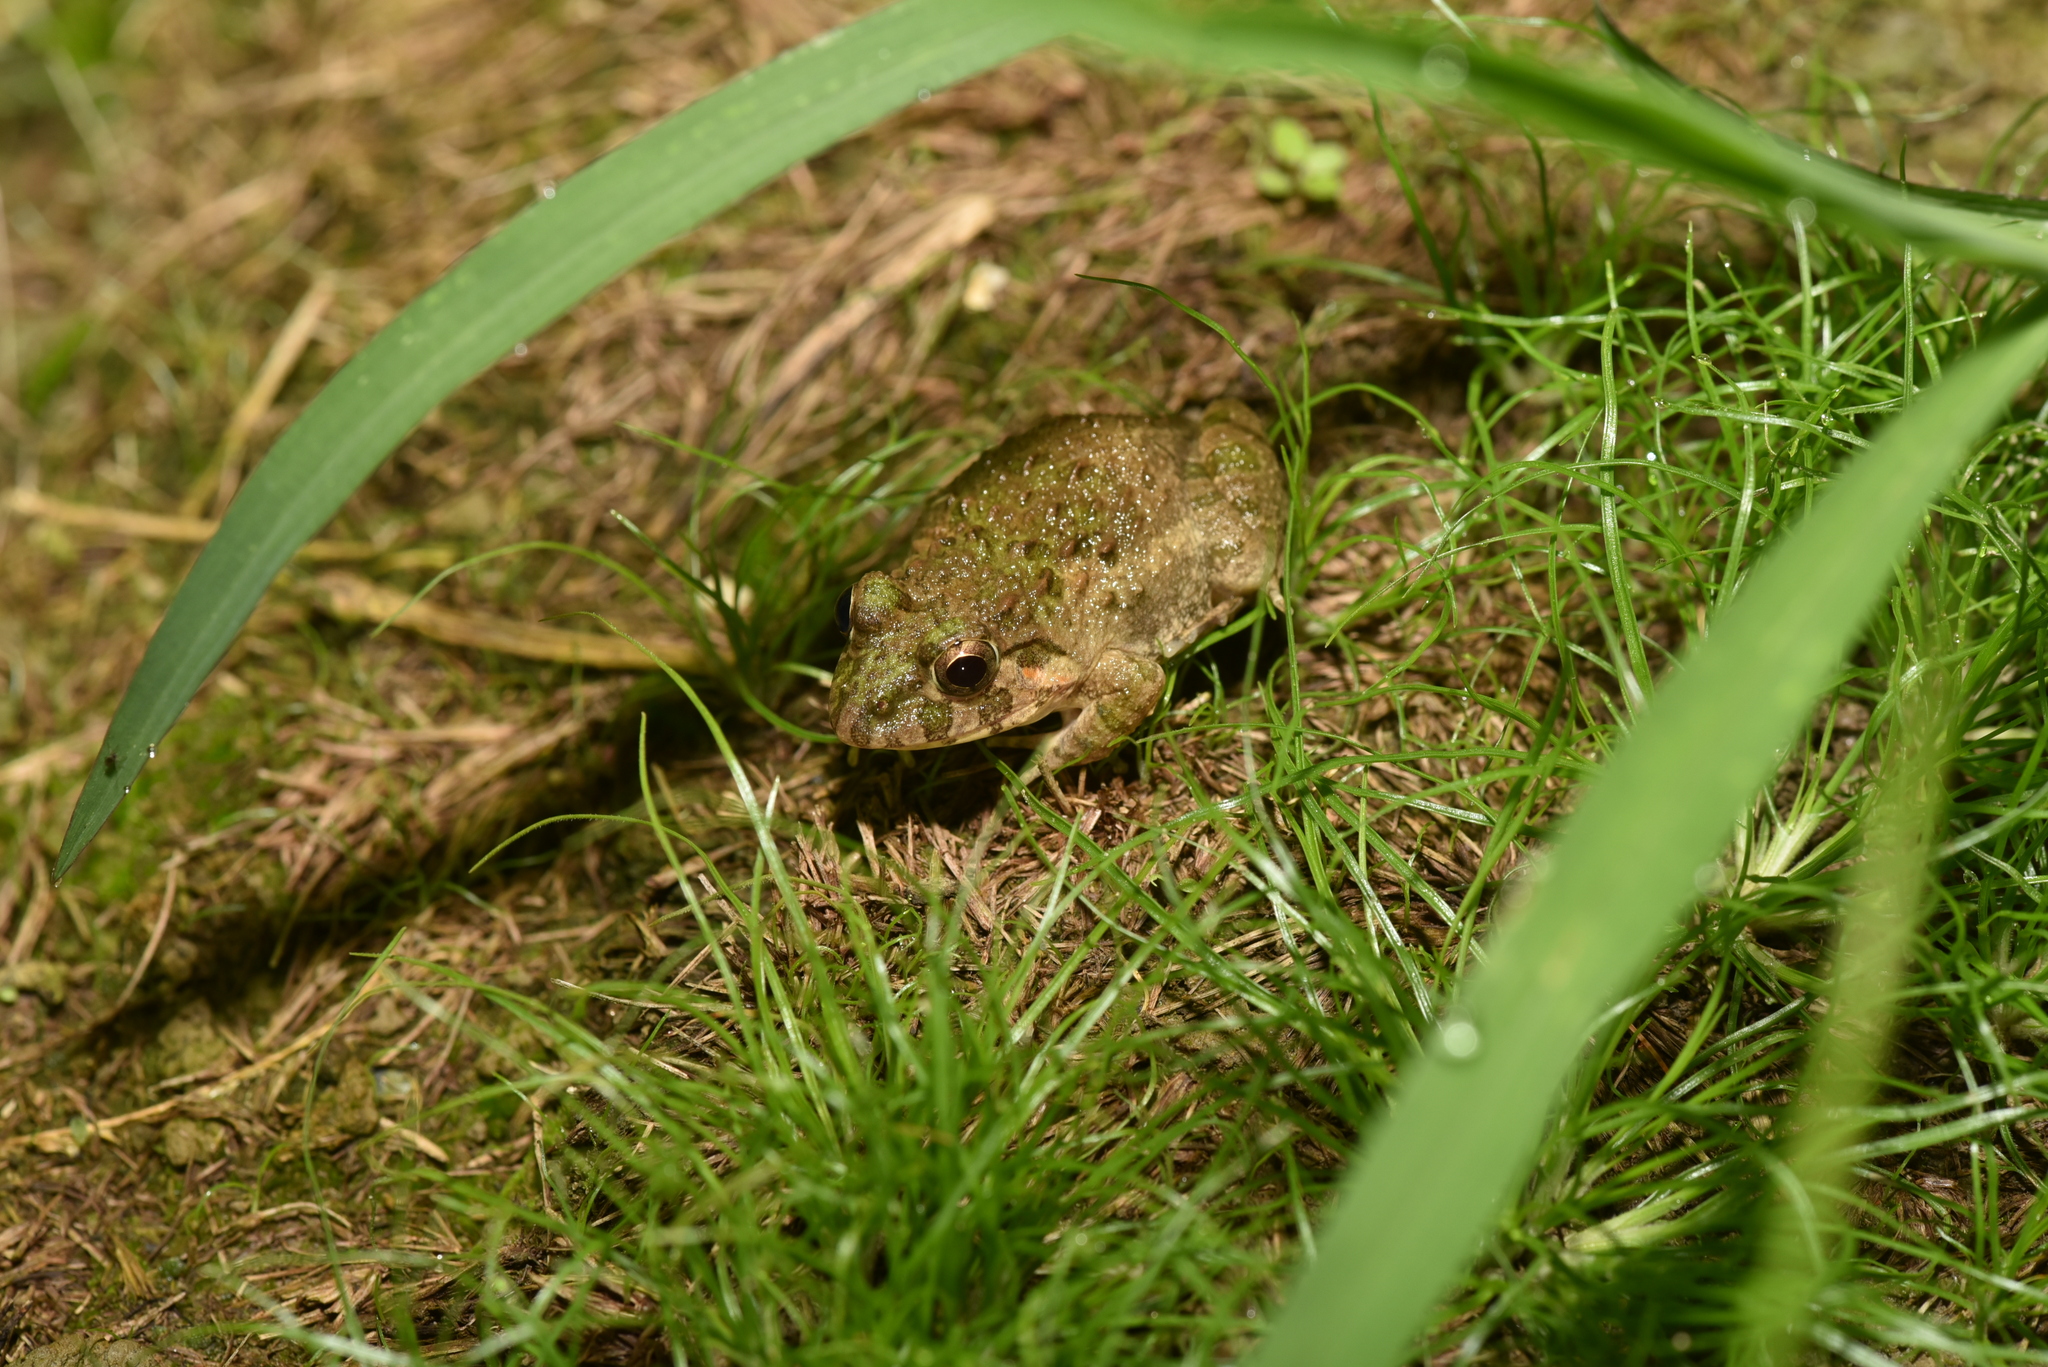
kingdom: Animalia
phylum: Chordata
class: Amphibia
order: Anura
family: Dicroglossidae
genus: Fejervarya
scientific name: Fejervarya limnocharis
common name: Asian grass frog/common pond frog/field frog/grass frog/indian rice frog
